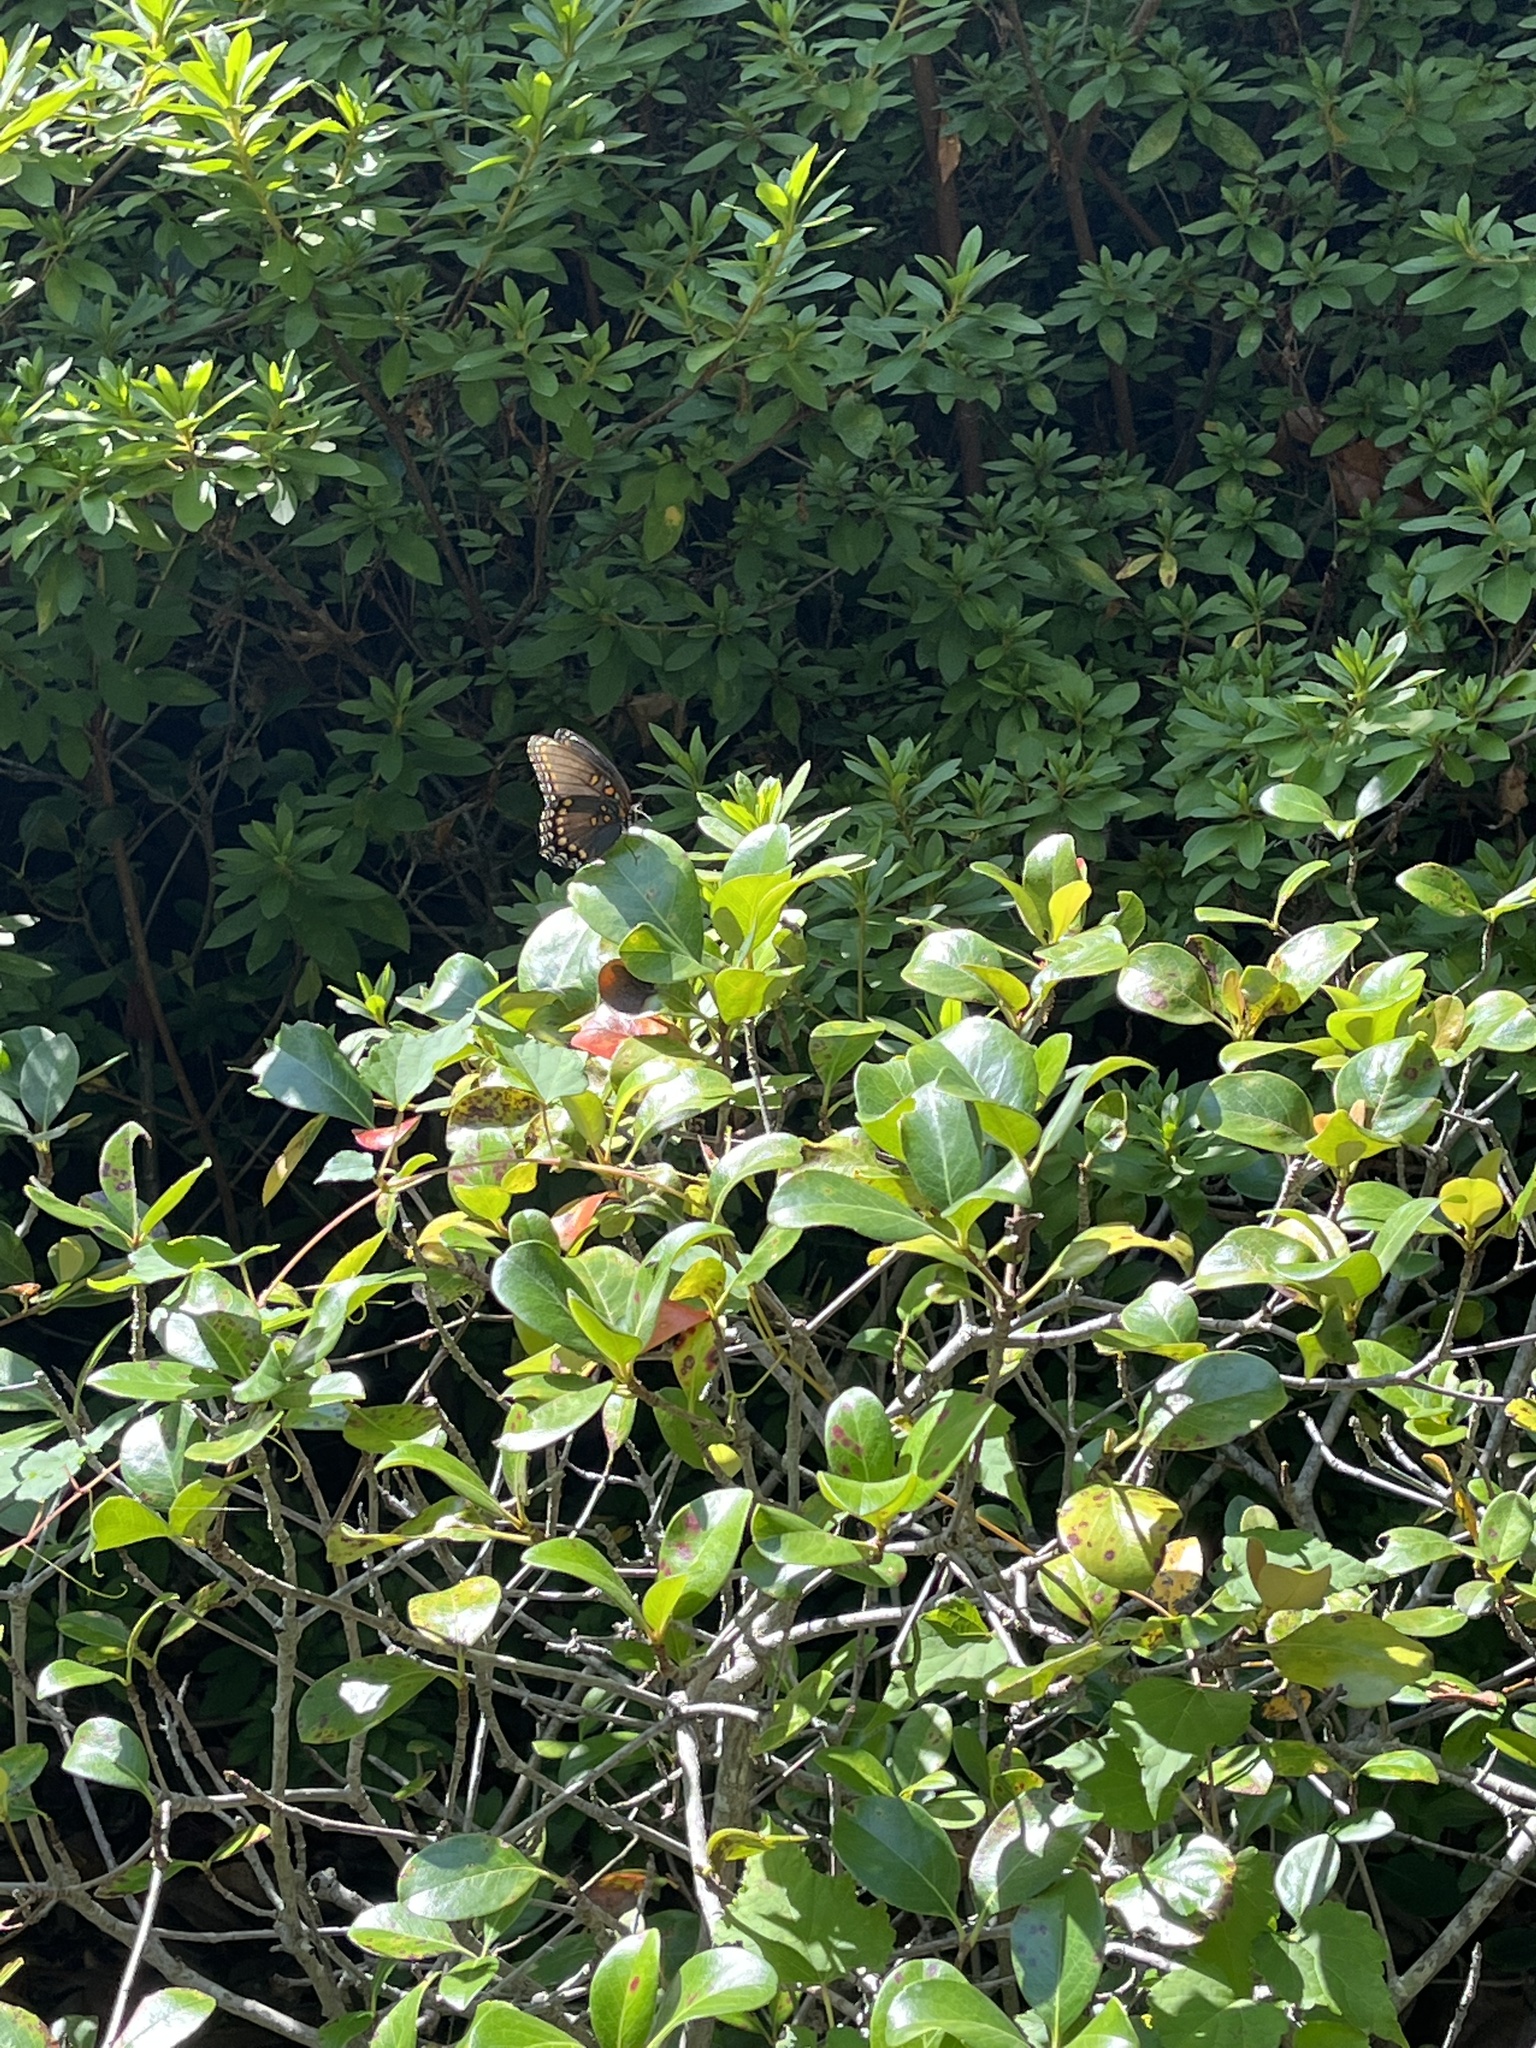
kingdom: Animalia
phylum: Arthropoda
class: Insecta
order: Lepidoptera
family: Nymphalidae
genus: Limenitis
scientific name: Limenitis astyanax
